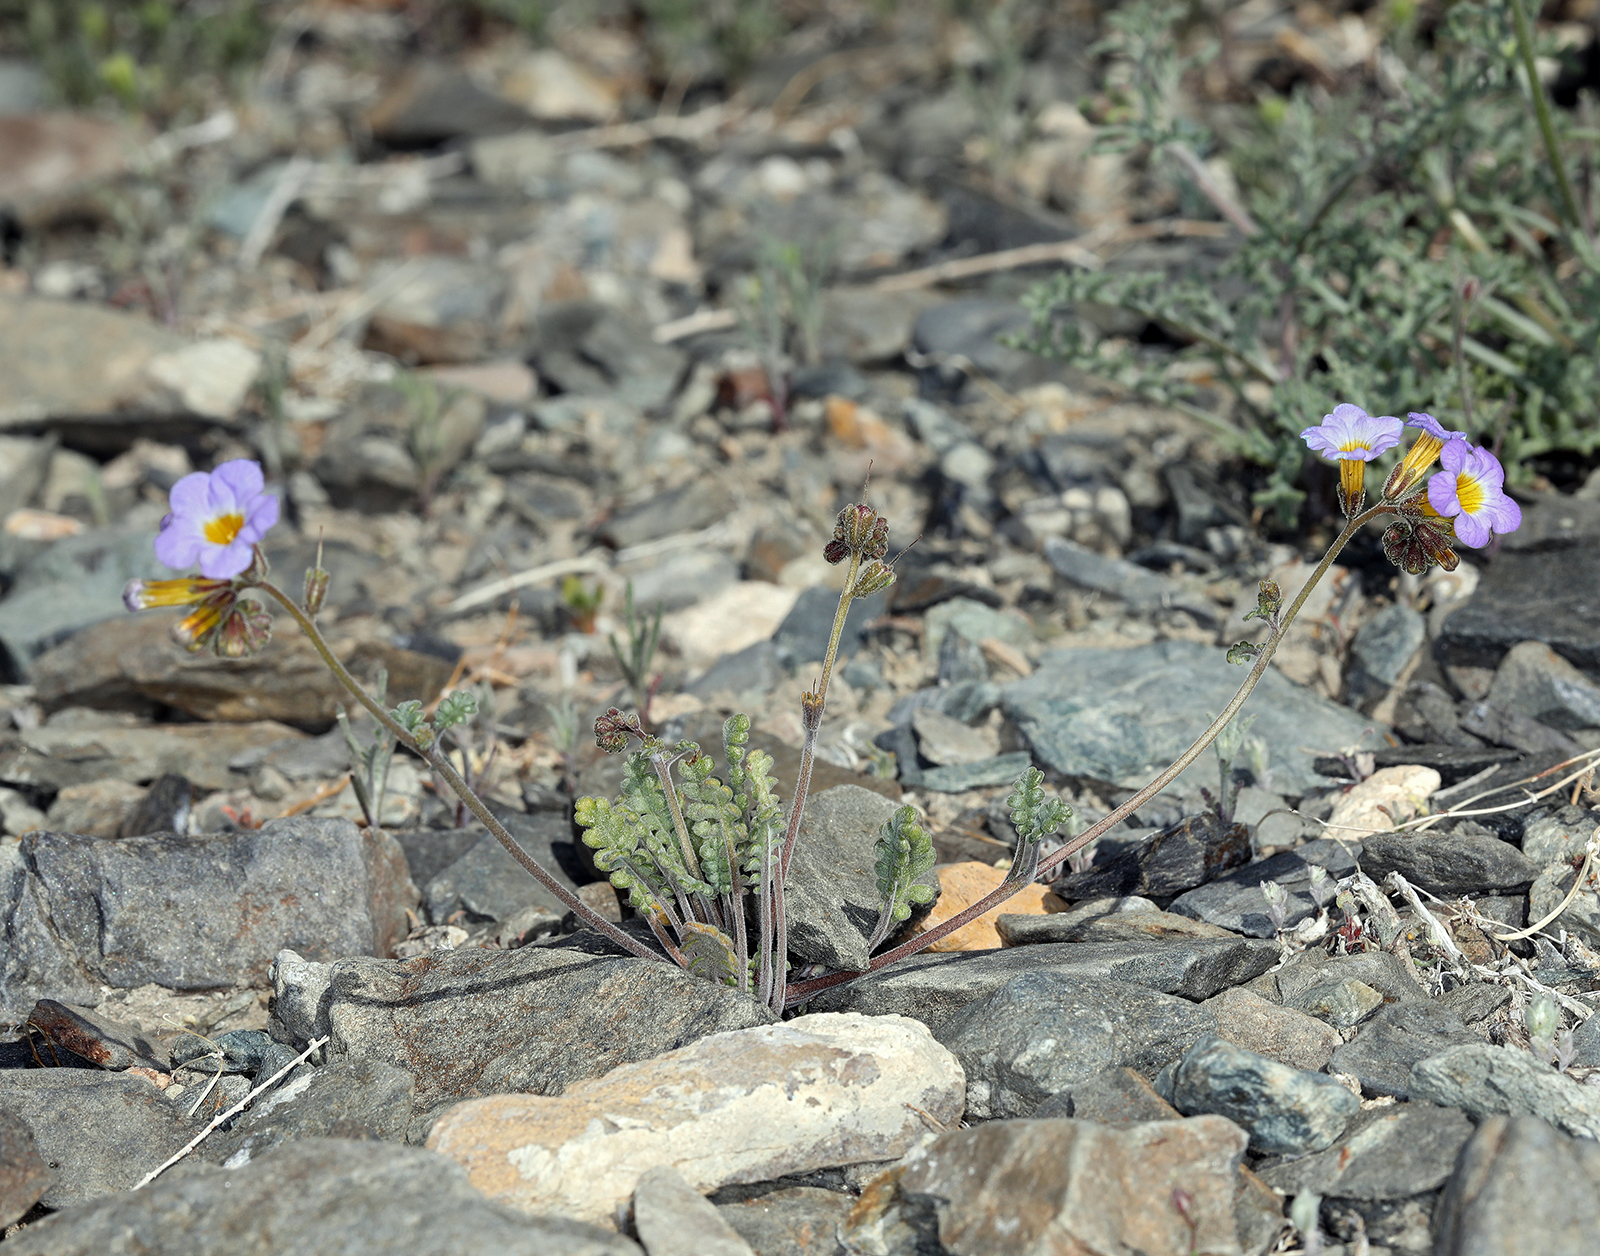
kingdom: Plantae
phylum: Tracheophyta
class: Magnoliopsida
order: Boraginales
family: Hydrophyllaceae
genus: Phacelia
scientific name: Phacelia fremontii
